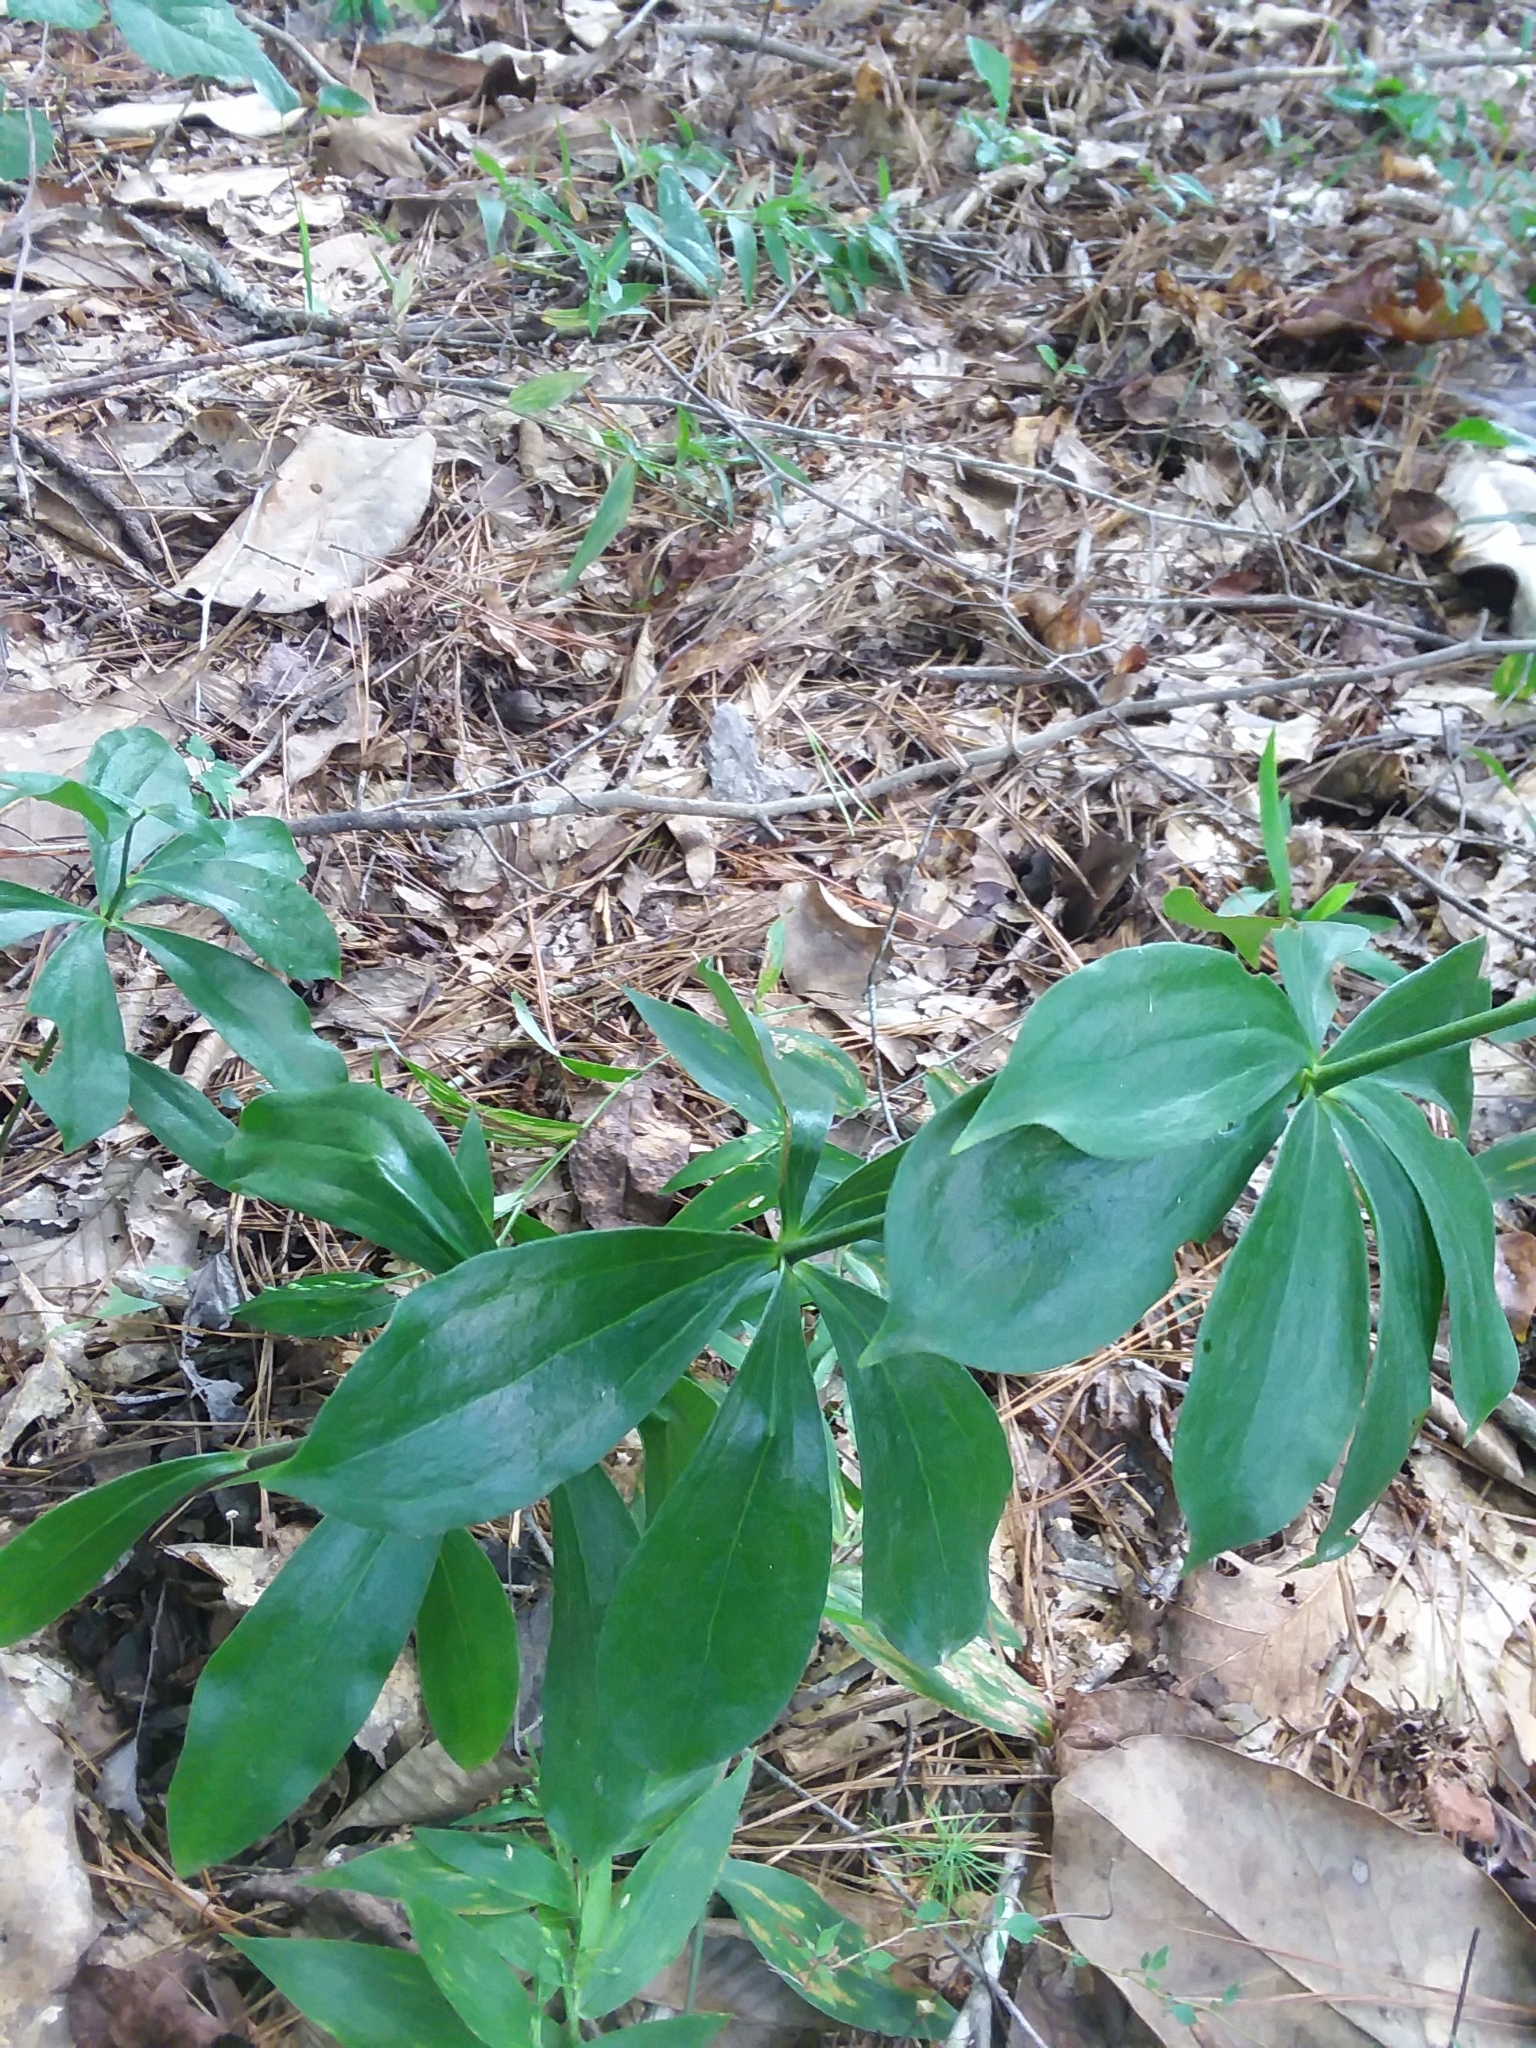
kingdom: Plantae
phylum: Tracheophyta
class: Liliopsida
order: Liliales
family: Liliaceae
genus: Lilium
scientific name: Lilium michauxii
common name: Carolina lily
